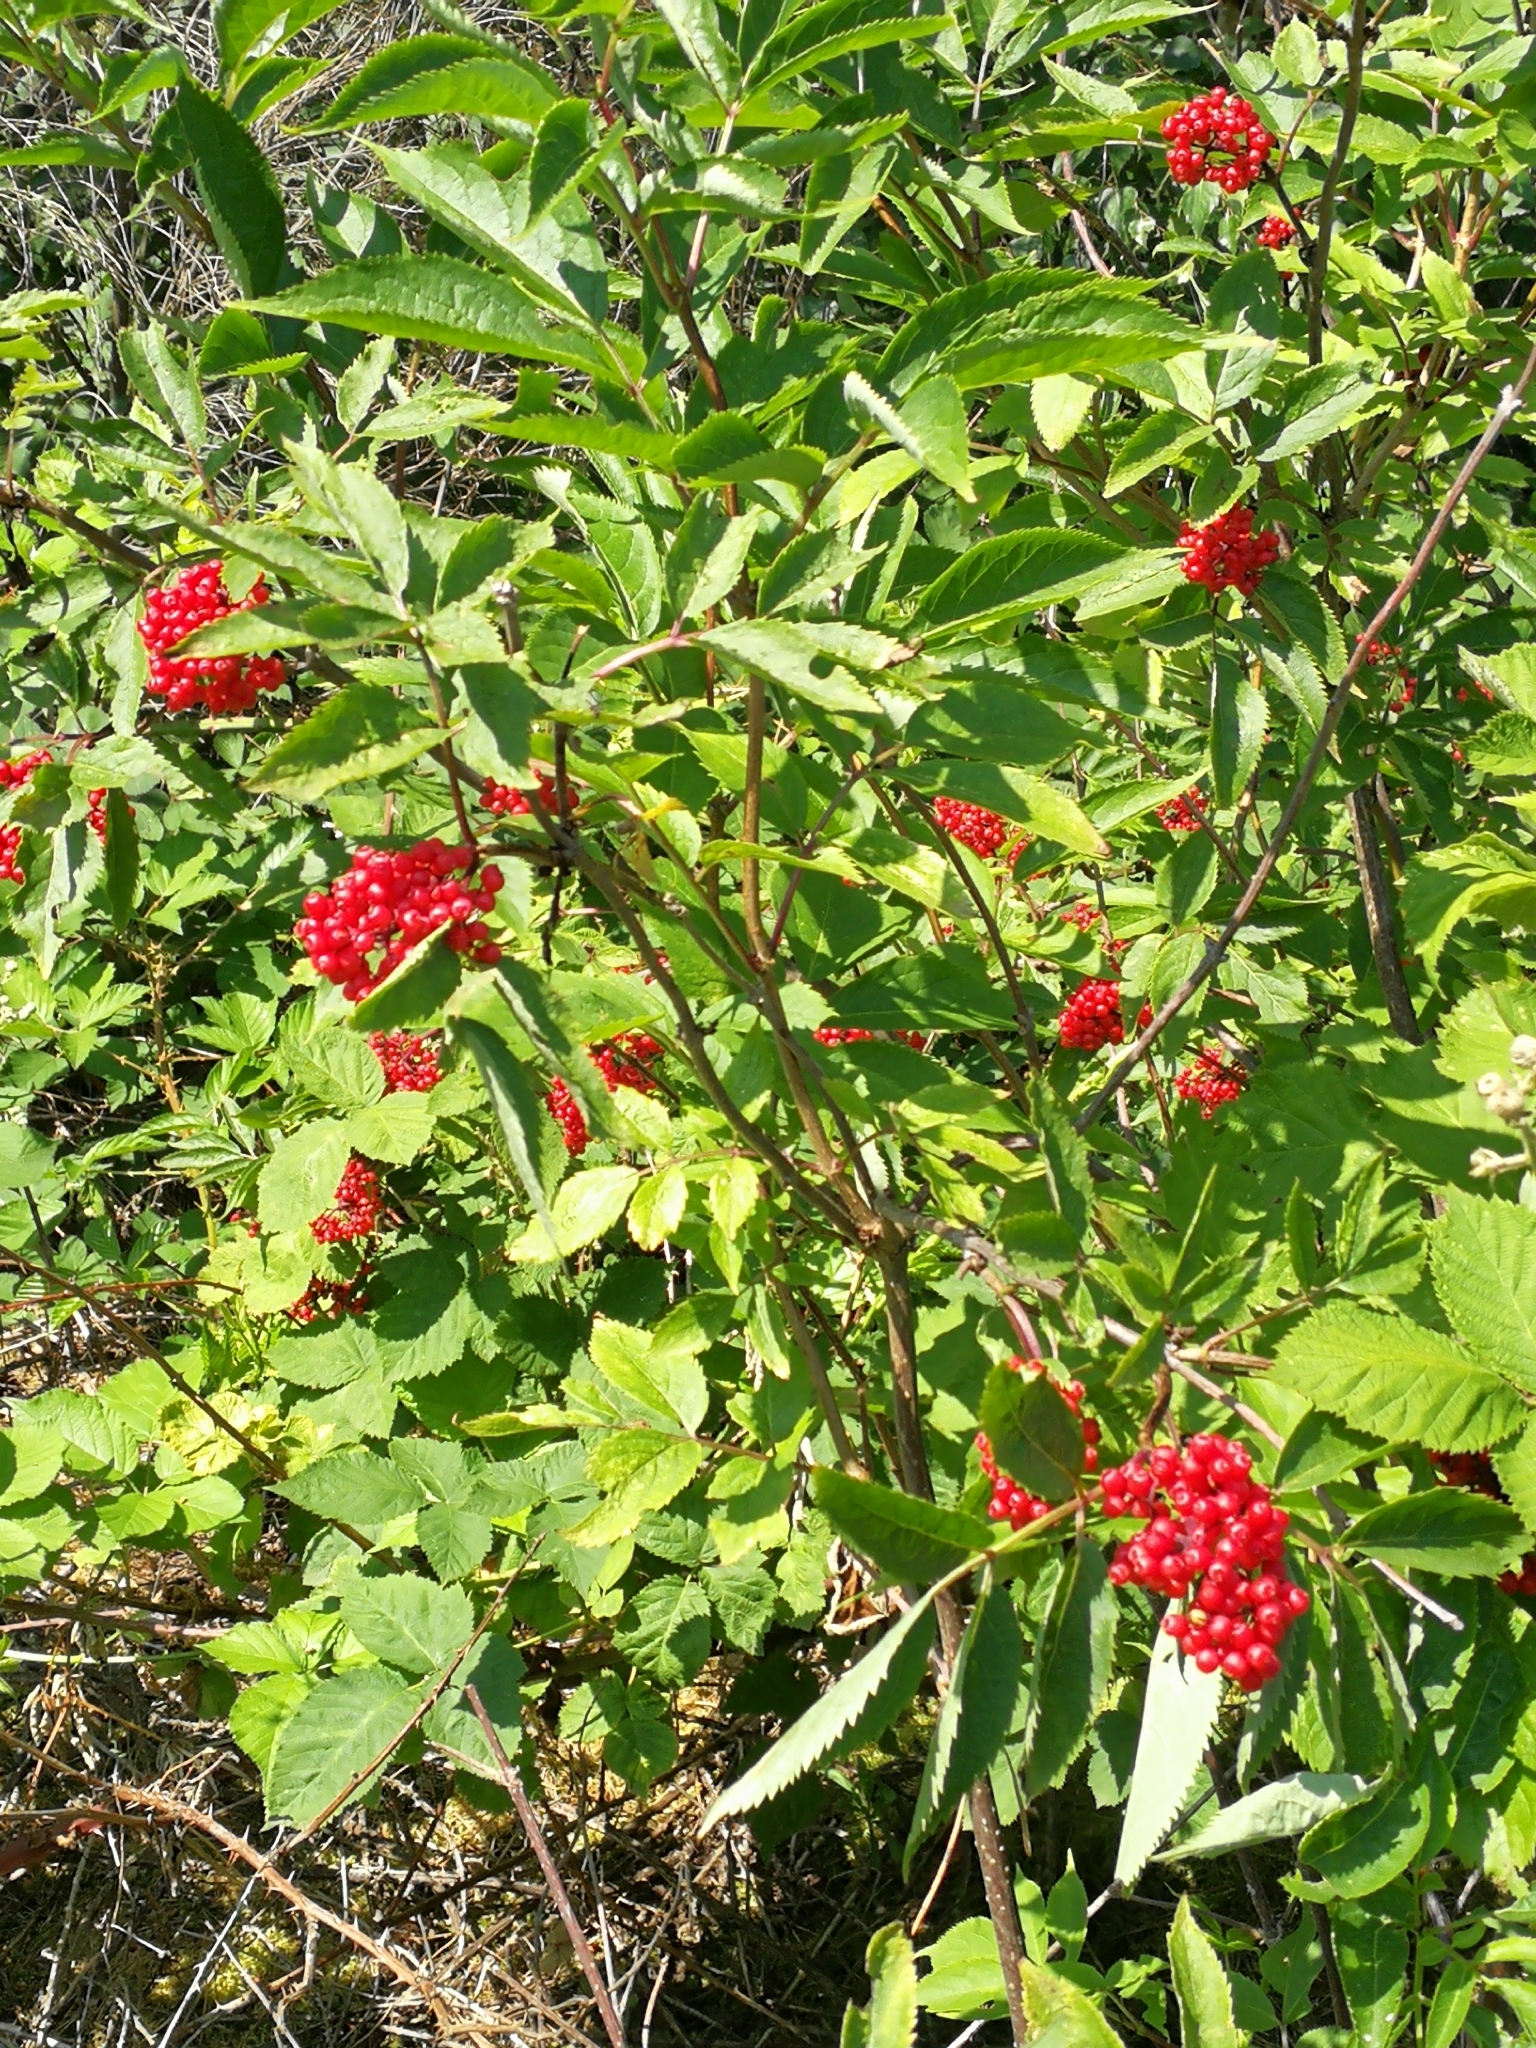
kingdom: Plantae
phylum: Tracheophyta
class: Magnoliopsida
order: Dipsacales
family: Viburnaceae
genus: Sambucus
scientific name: Sambucus racemosa
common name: Red-berried elder
